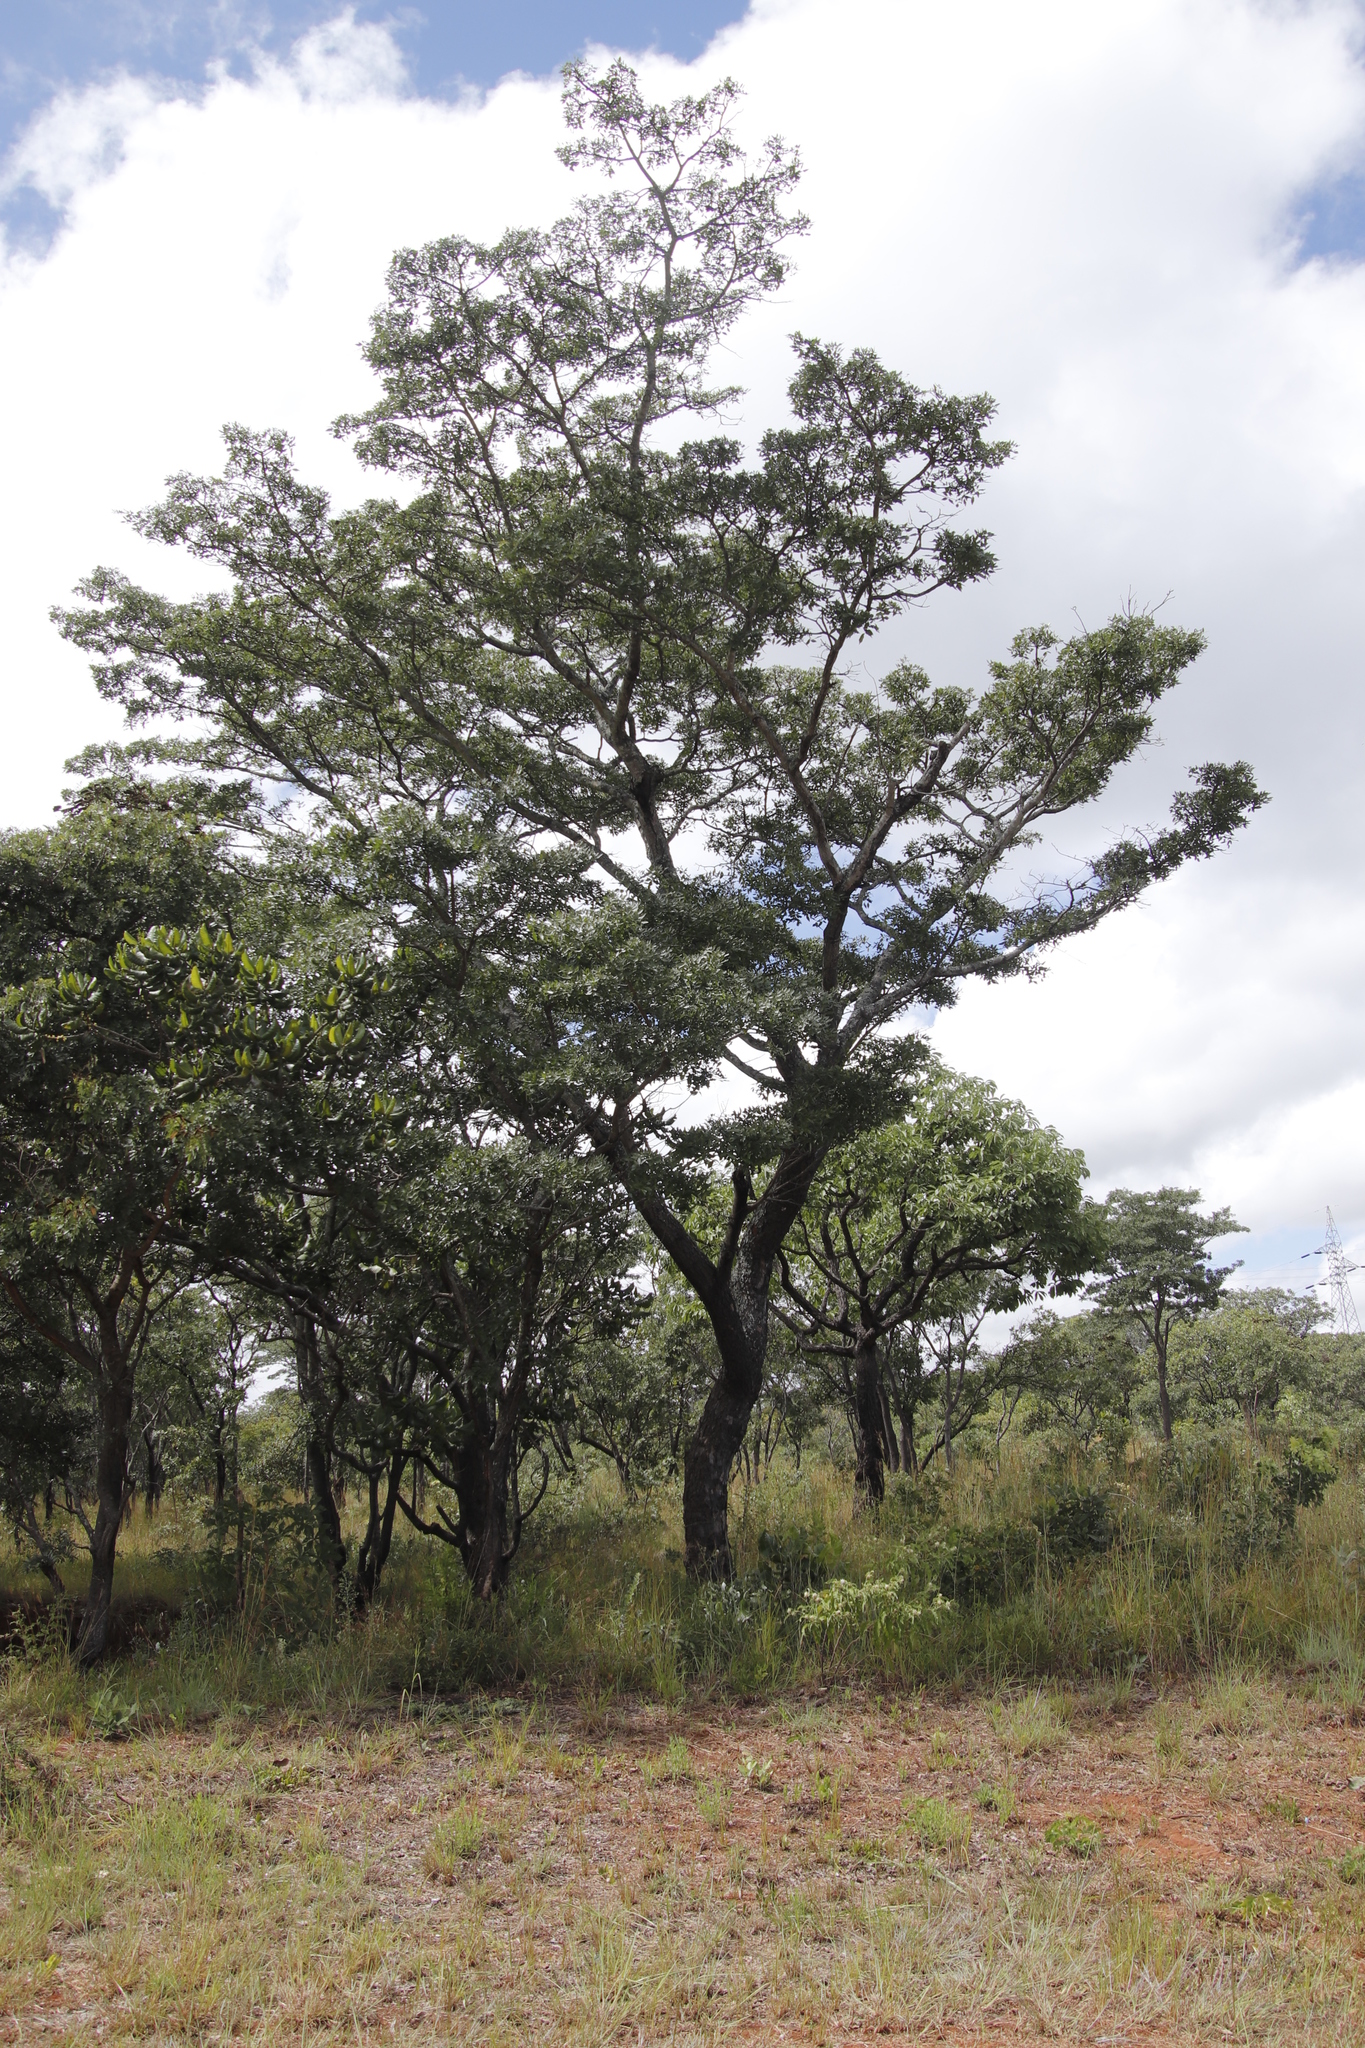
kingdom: Plantae
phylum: Tracheophyta
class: Magnoliopsida
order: Fabales
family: Fabaceae
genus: Brachystegia
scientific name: Brachystegia spiciformis
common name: Zebrawood
